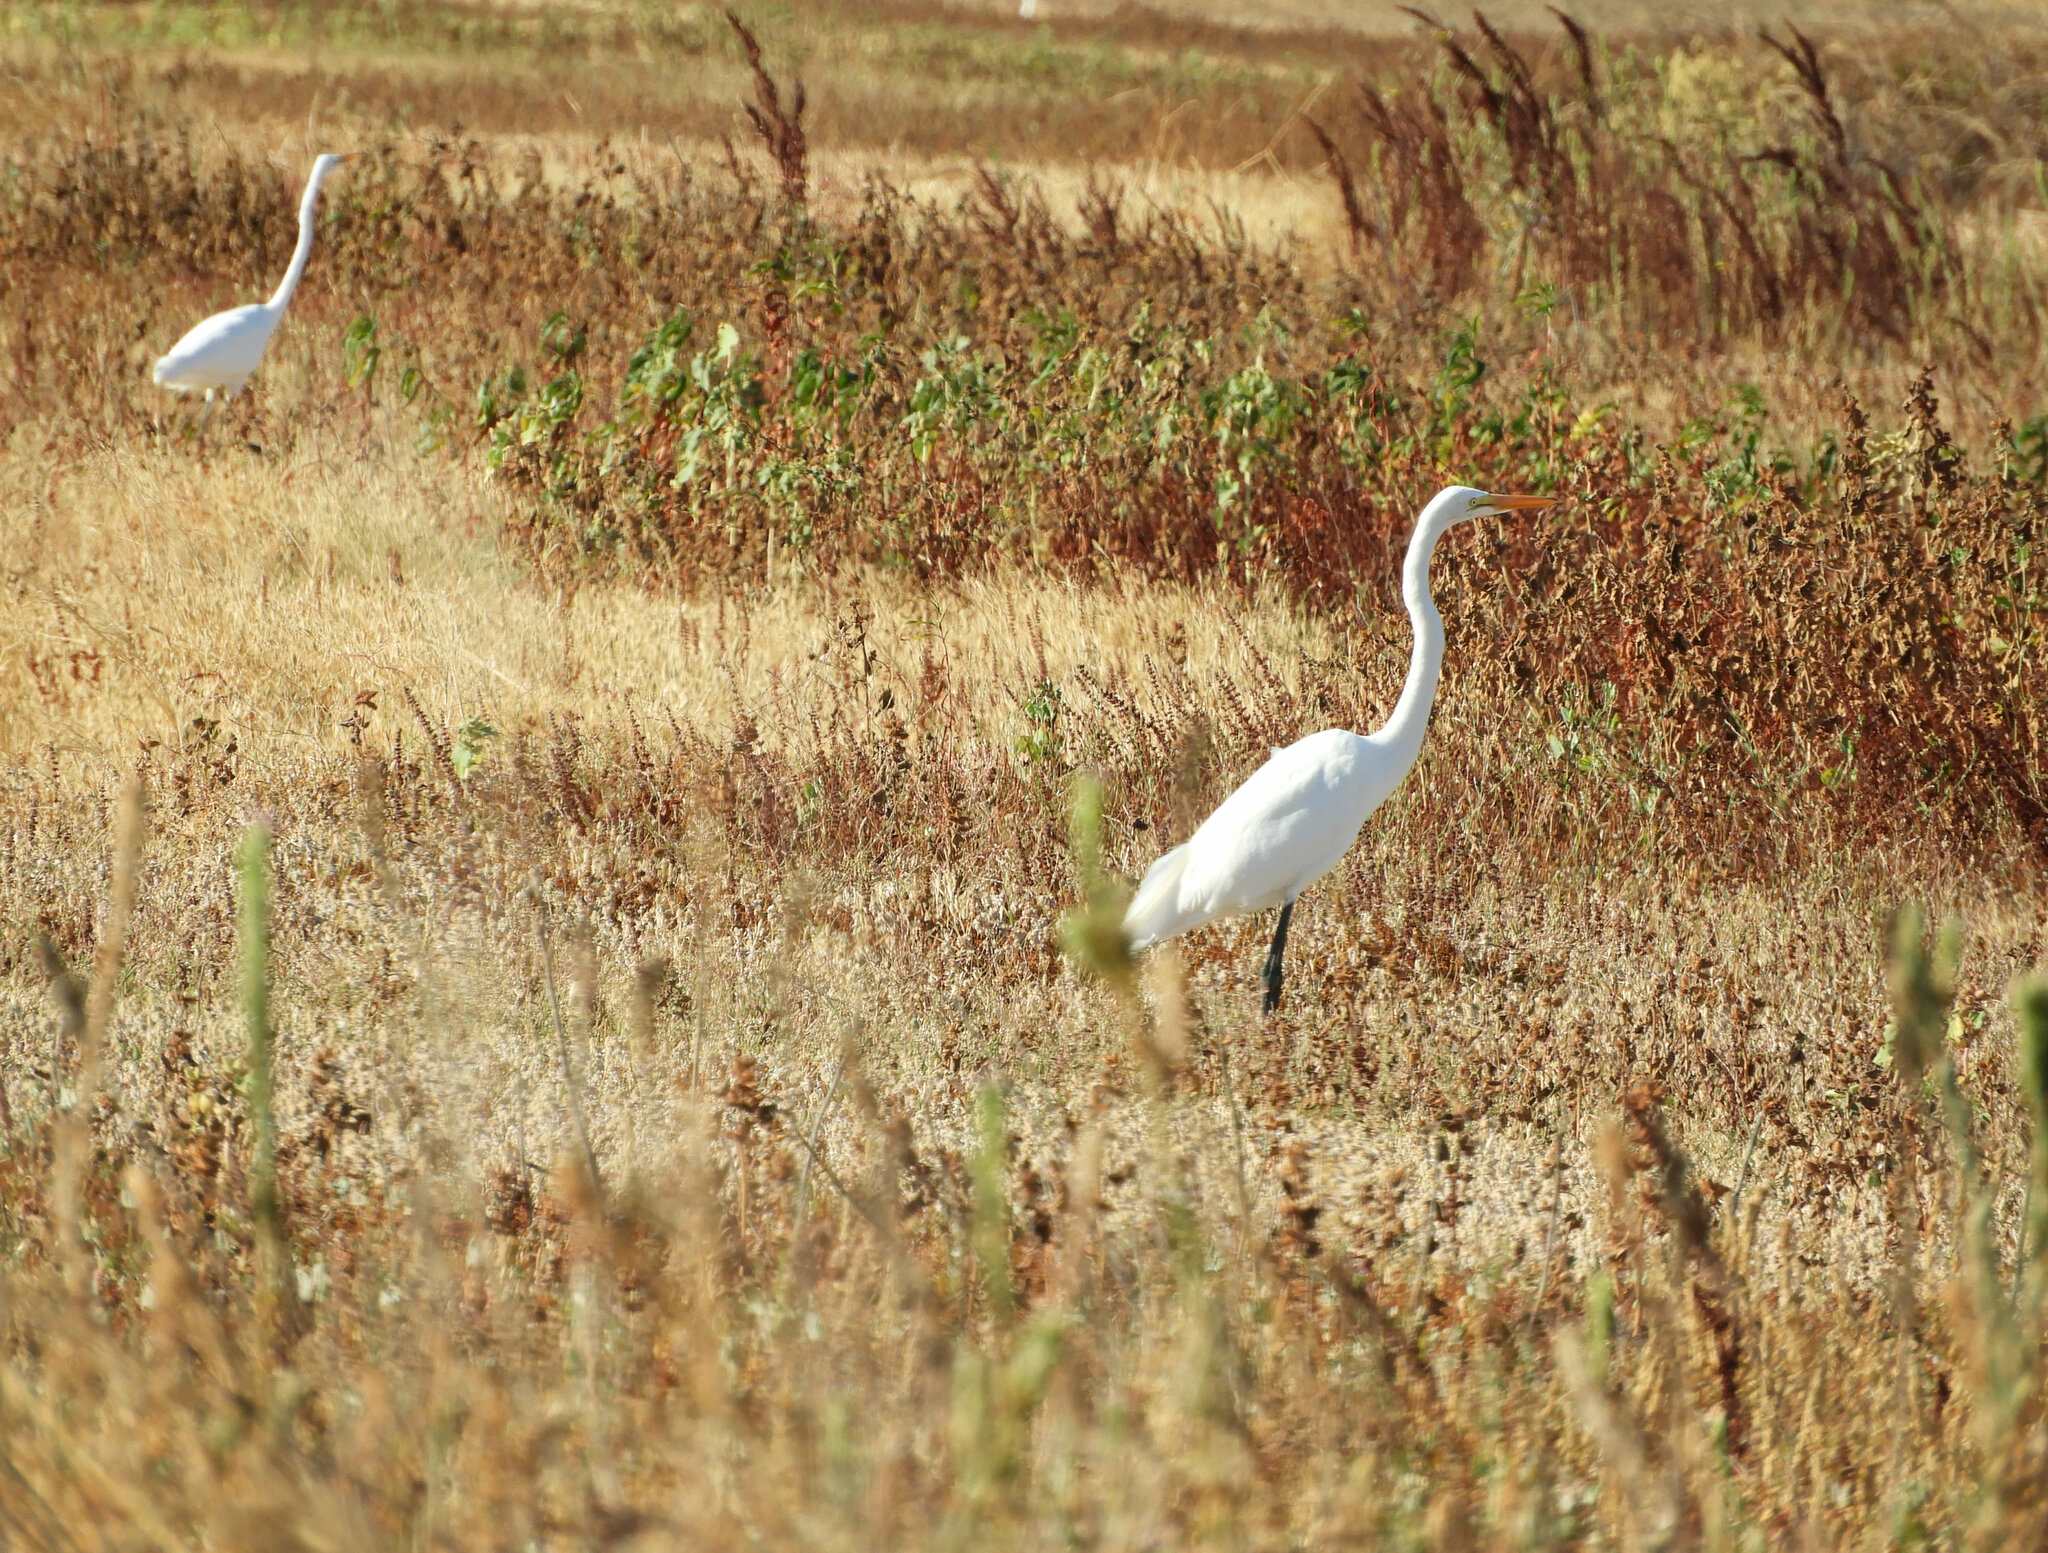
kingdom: Animalia
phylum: Chordata
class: Aves
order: Pelecaniformes
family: Ardeidae
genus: Ardea
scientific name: Ardea alba
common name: Great egret
